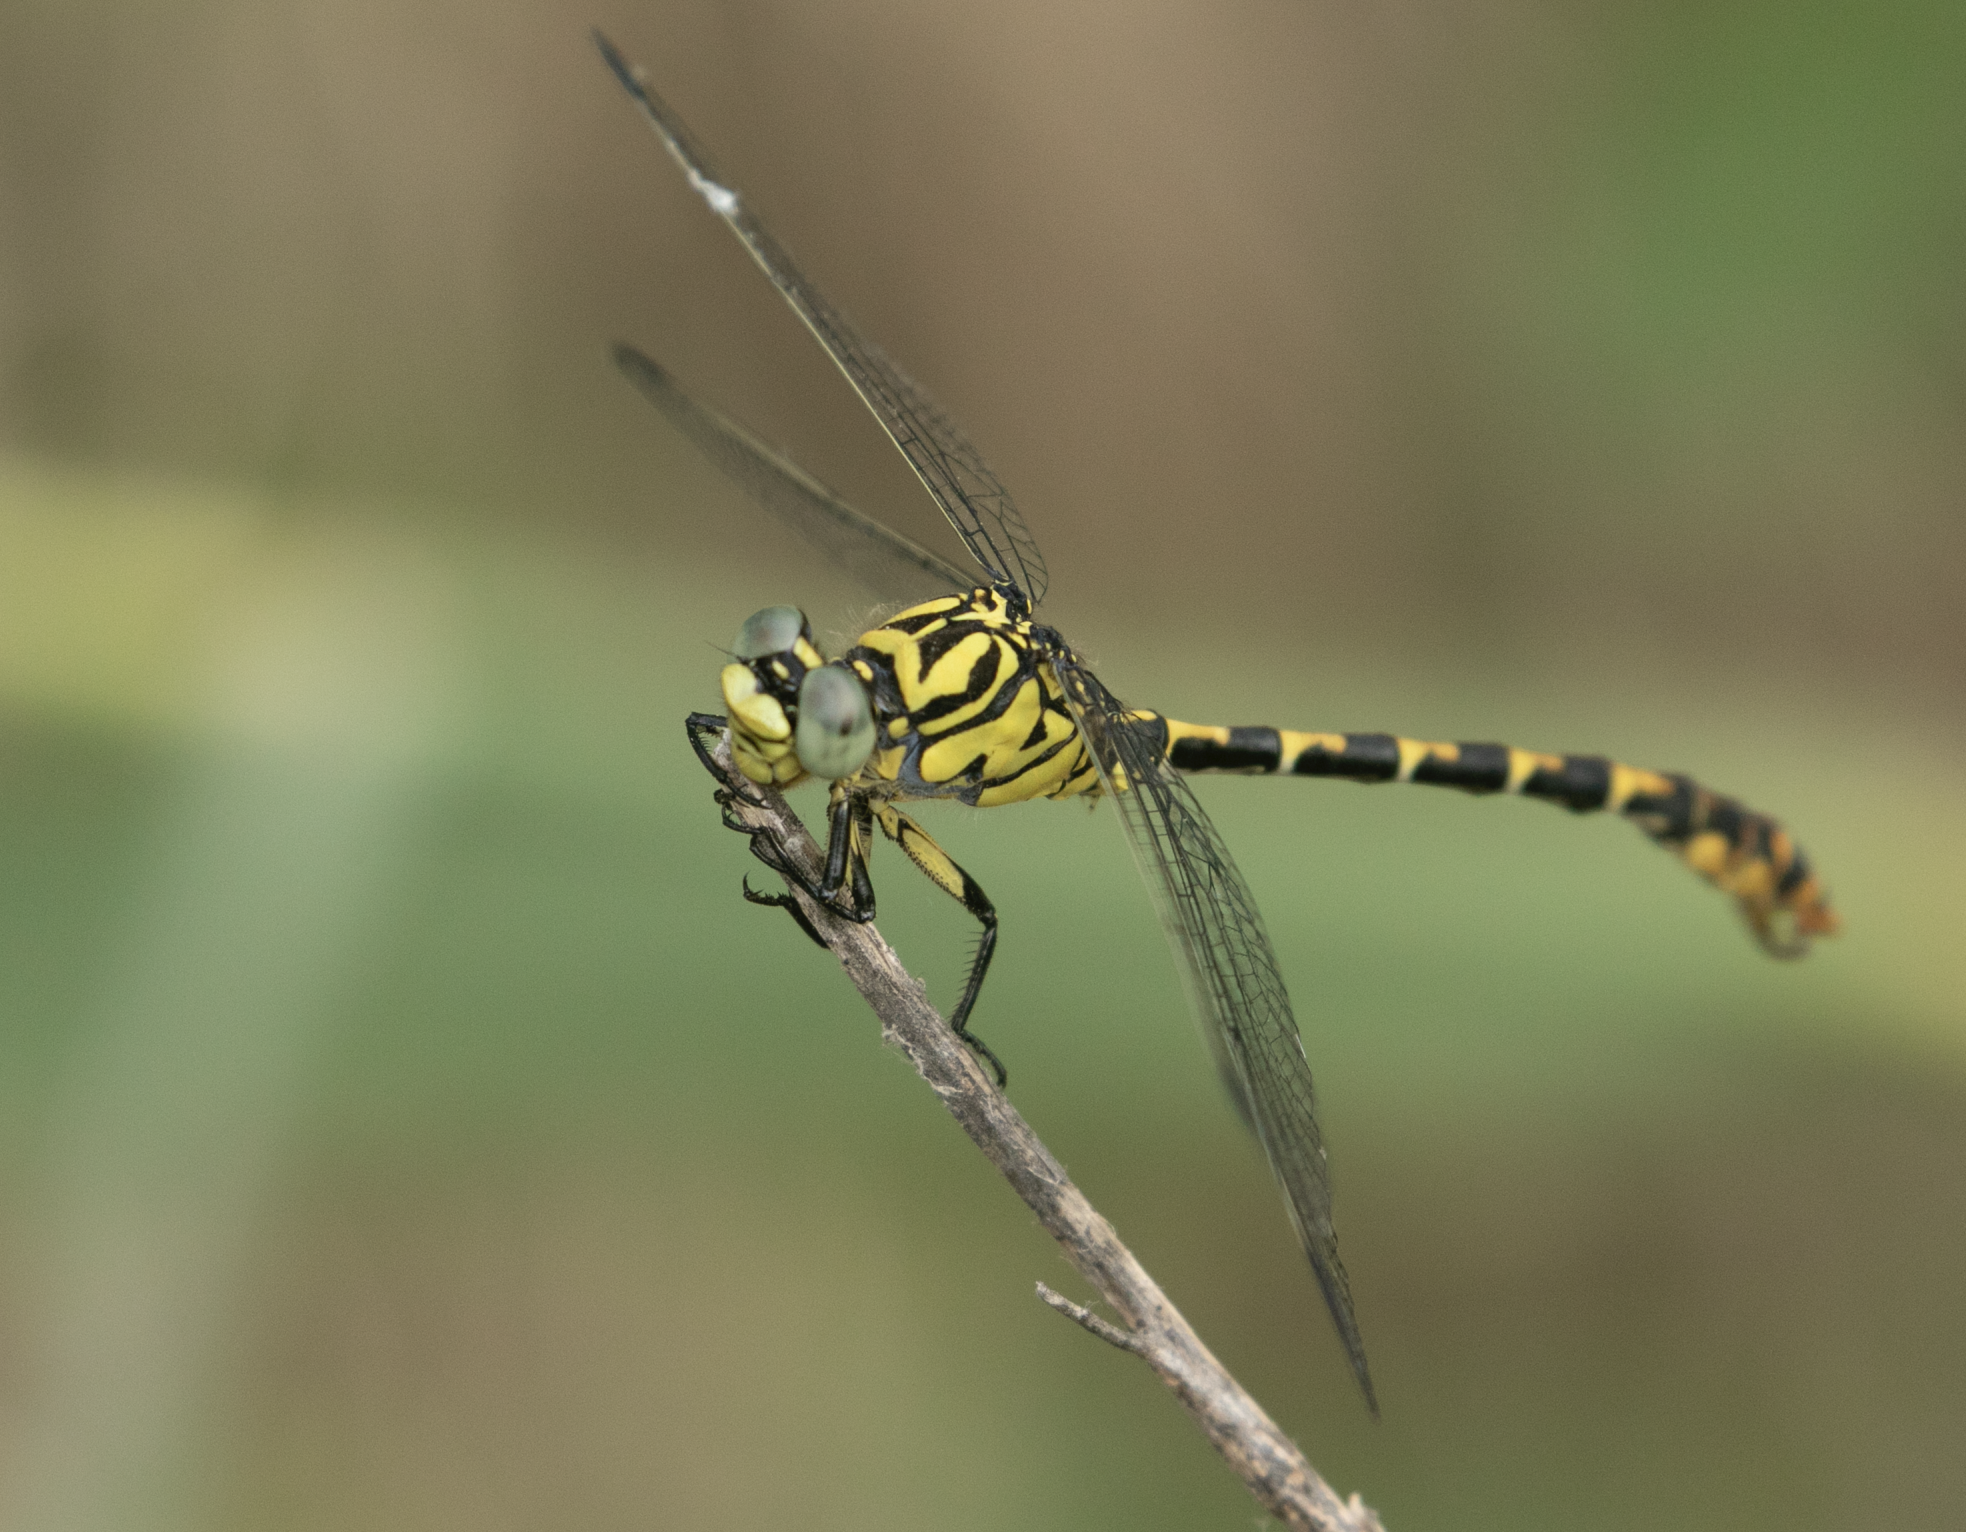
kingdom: Animalia
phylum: Arthropoda
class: Insecta
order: Odonata
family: Gomphidae
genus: Onychogomphus
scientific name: Onychogomphus forcipatus
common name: Small pincertail
